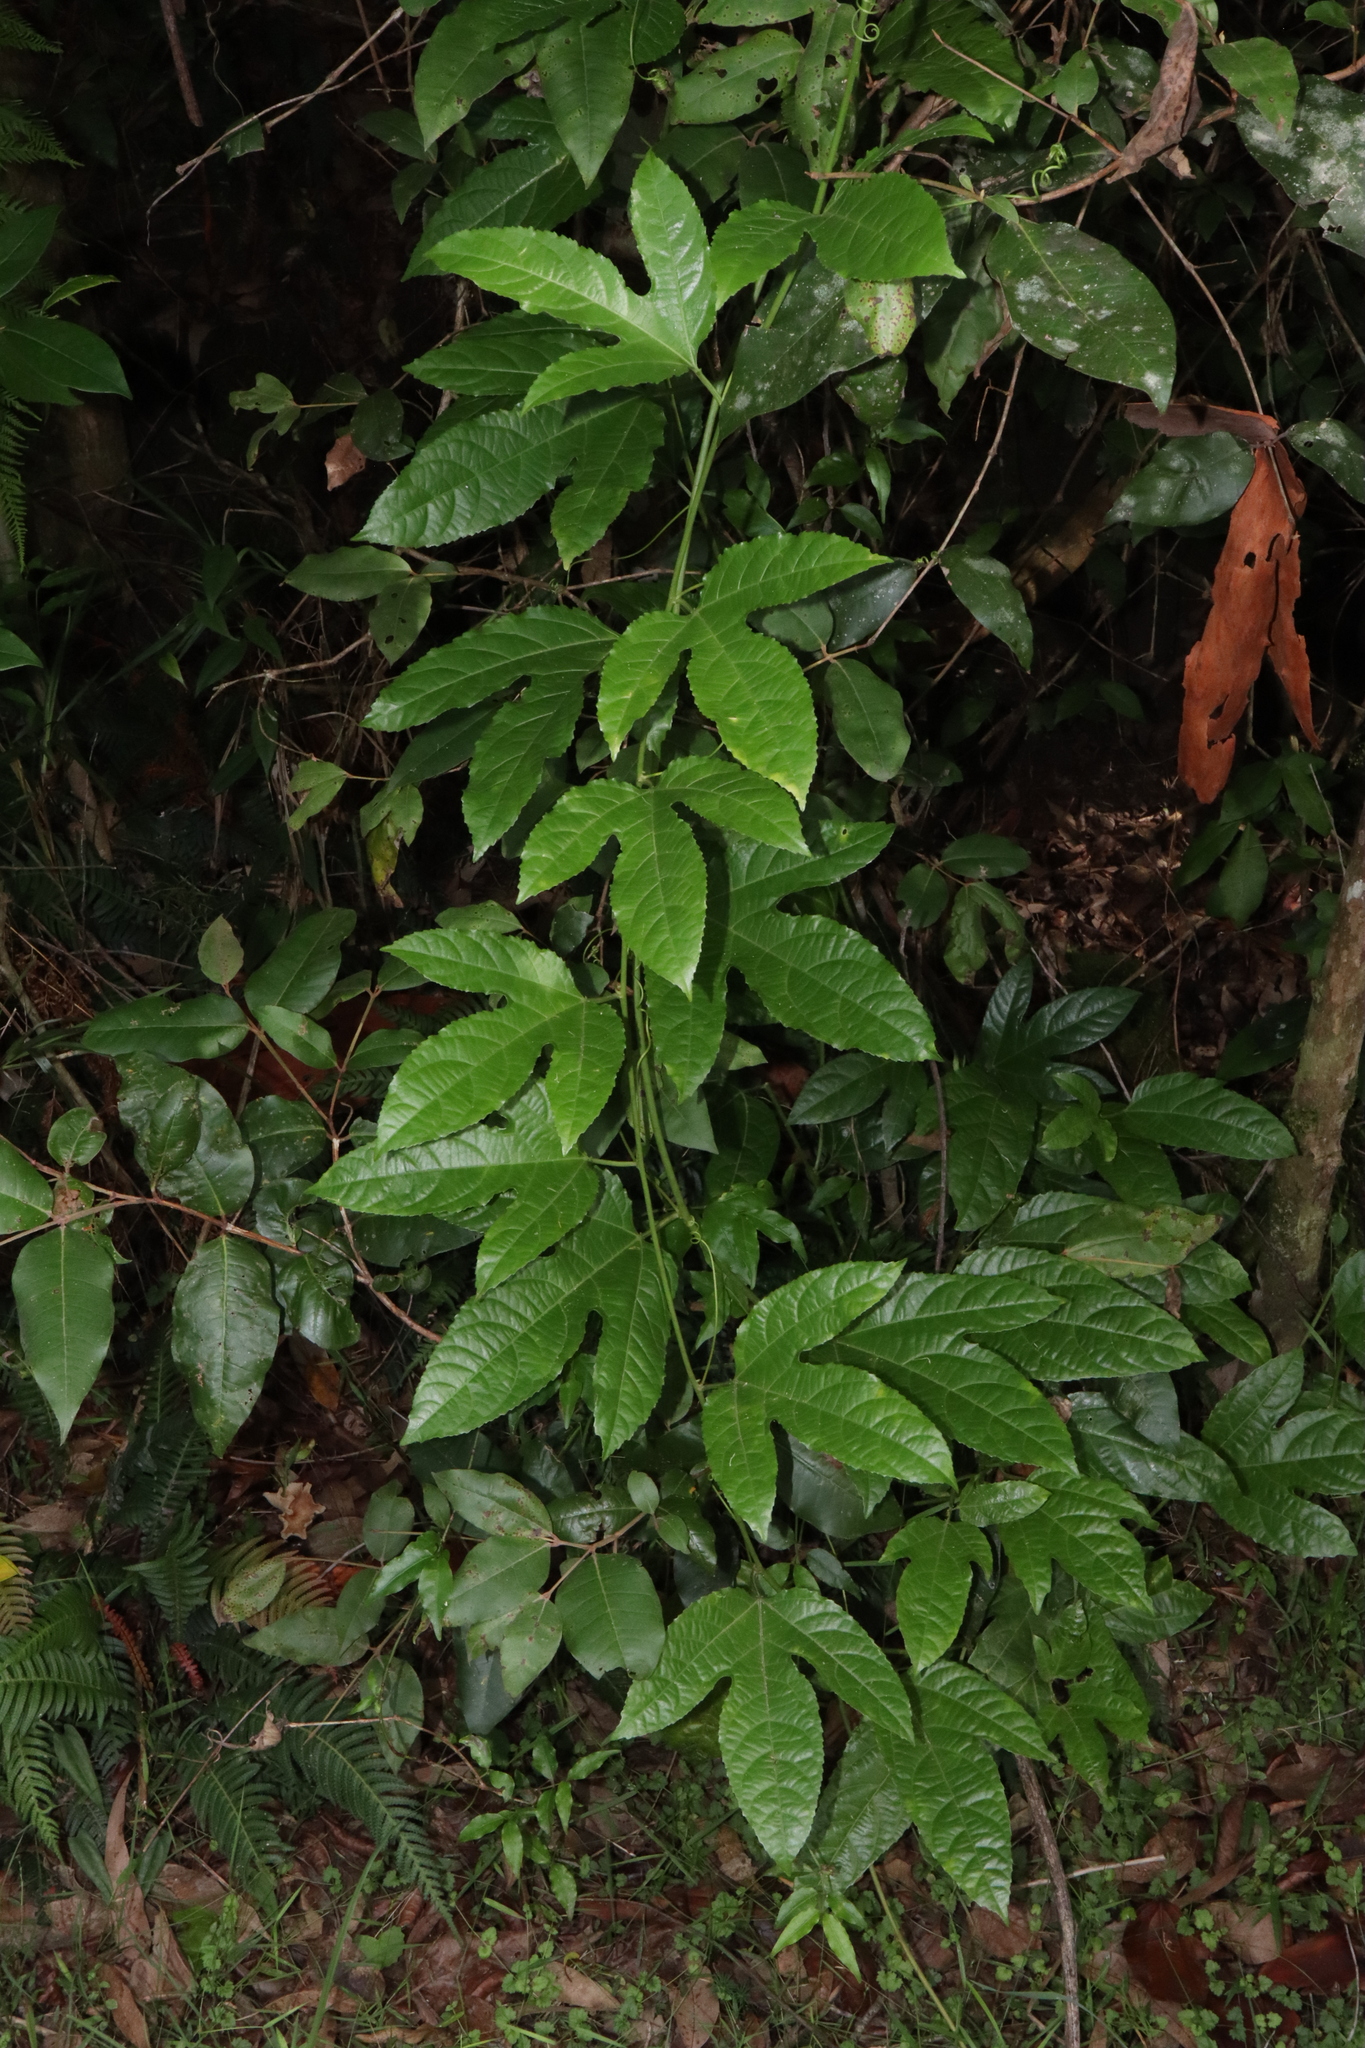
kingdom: Plantae
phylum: Tracheophyta
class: Magnoliopsida
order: Malpighiales
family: Passifloraceae
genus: Passiflora
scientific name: Passiflora edulis
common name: Purple granadilla
